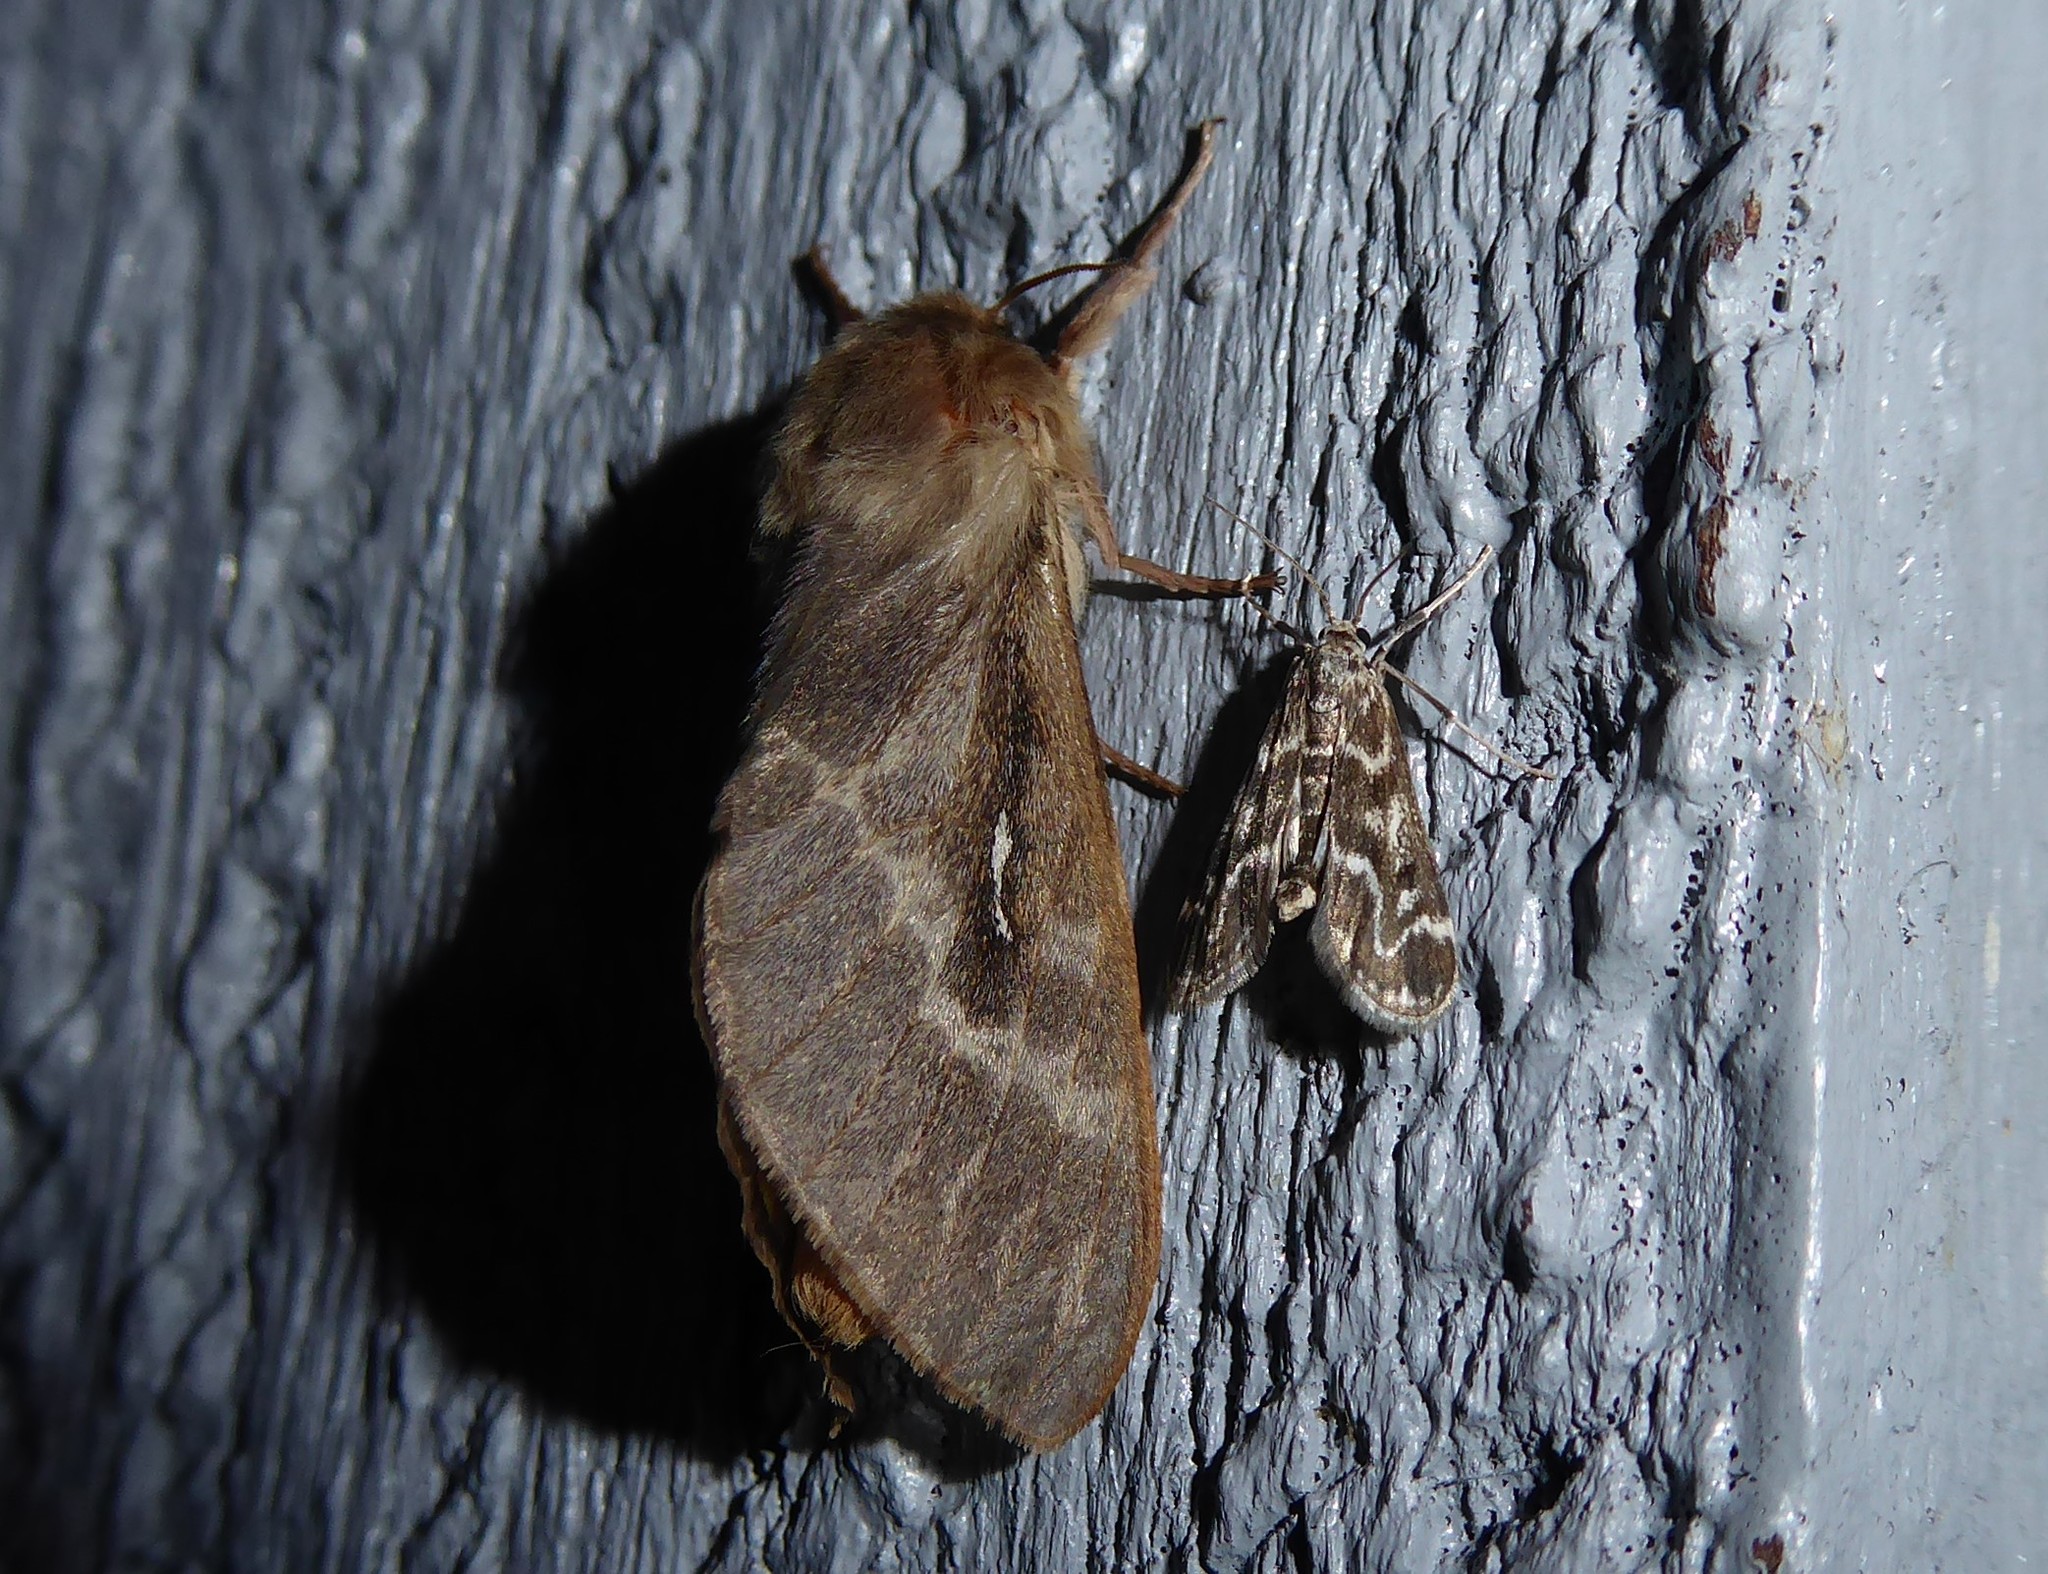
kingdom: Animalia
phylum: Arthropoda
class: Insecta
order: Lepidoptera
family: Crambidae
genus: Hygraula
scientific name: Hygraula nitens
